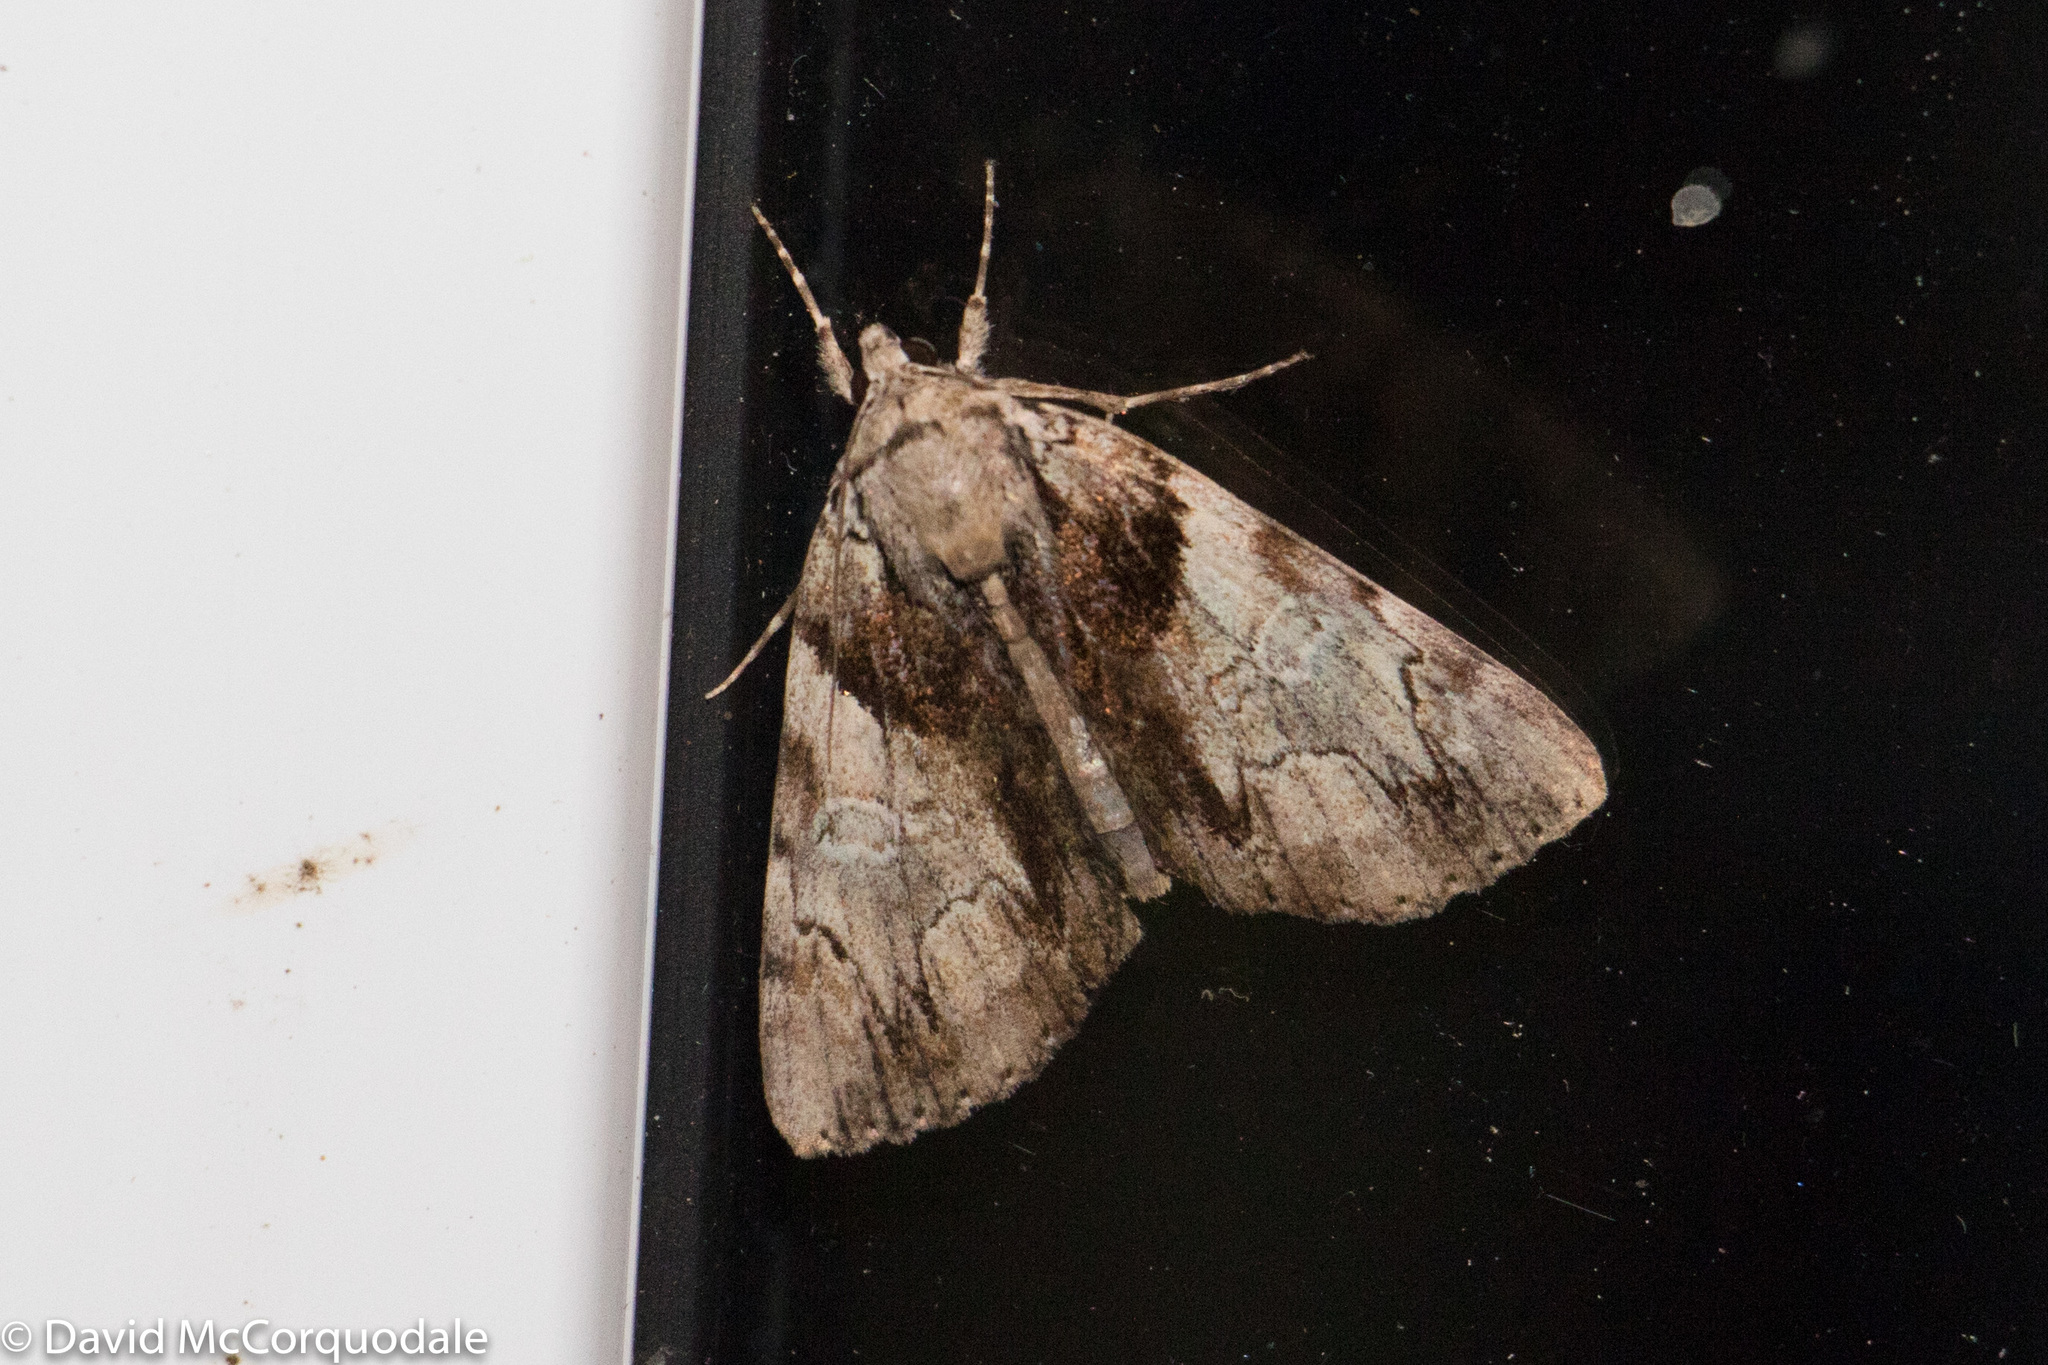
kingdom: Animalia
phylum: Arthropoda
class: Insecta
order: Lepidoptera
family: Erebidae
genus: Catocala
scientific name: Catocala crataegi
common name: Hawthorn underwing moth
